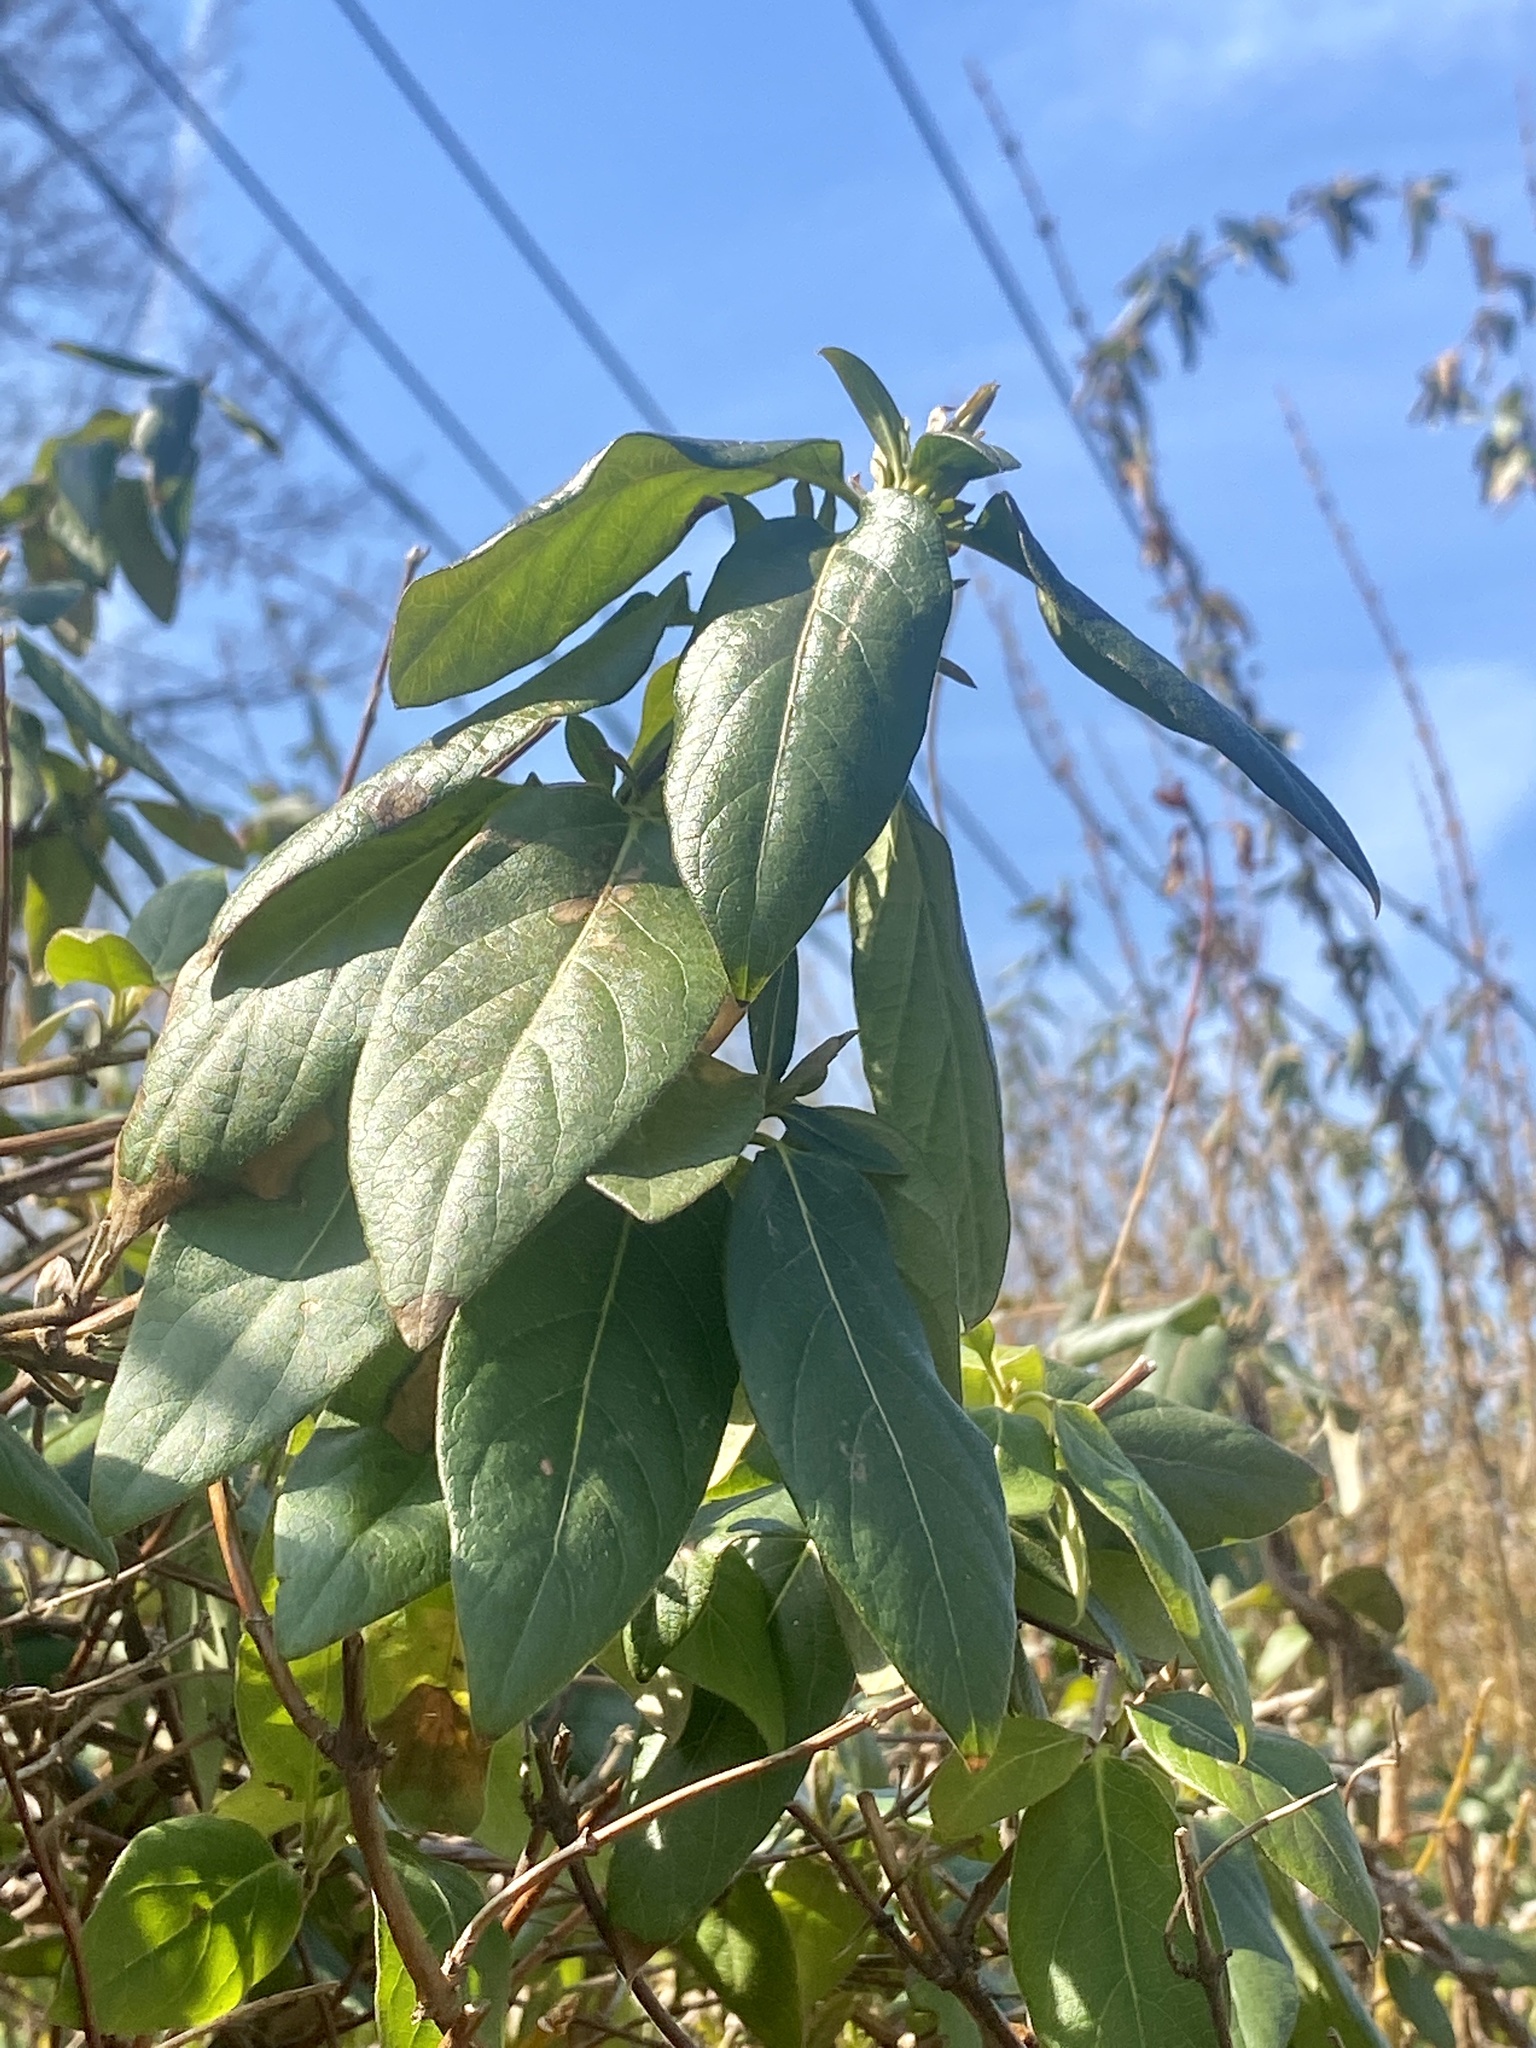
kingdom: Plantae
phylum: Tracheophyta
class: Magnoliopsida
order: Dipsacales
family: Caprifoliaceae
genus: Lonicera
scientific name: Lonicera japonica
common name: Japanese honeysuckle
